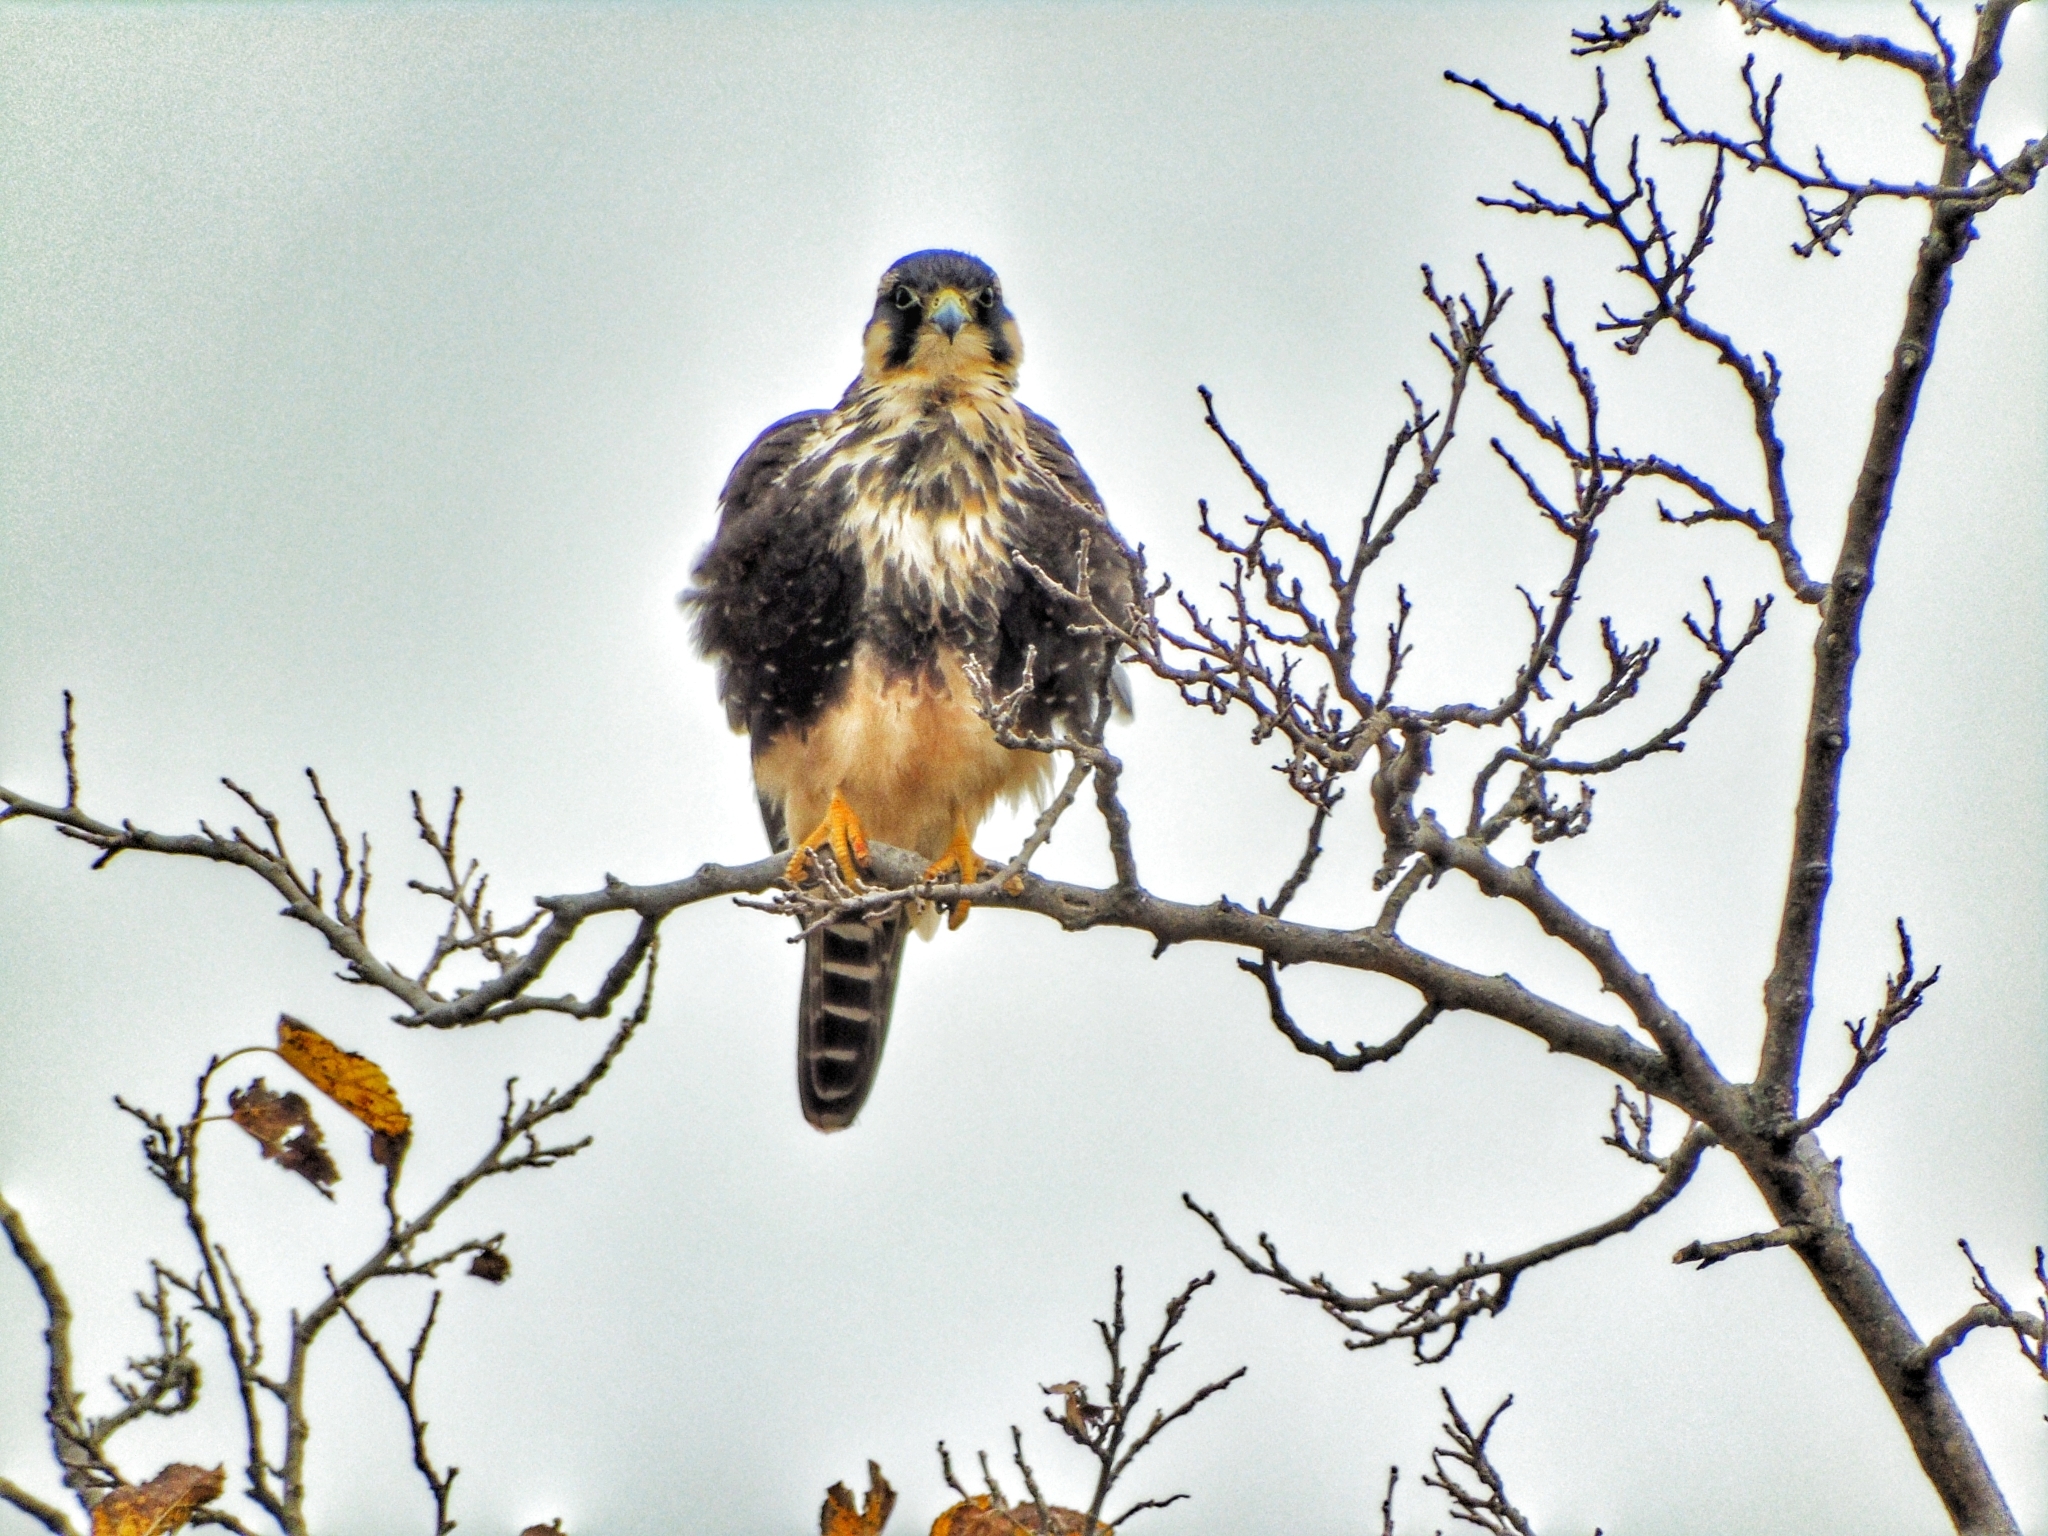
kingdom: Animalia
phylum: Chordata
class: Aves
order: Falconiformes
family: Falconidae
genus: Falco
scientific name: Falco femoralis
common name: Aplomado falcon
